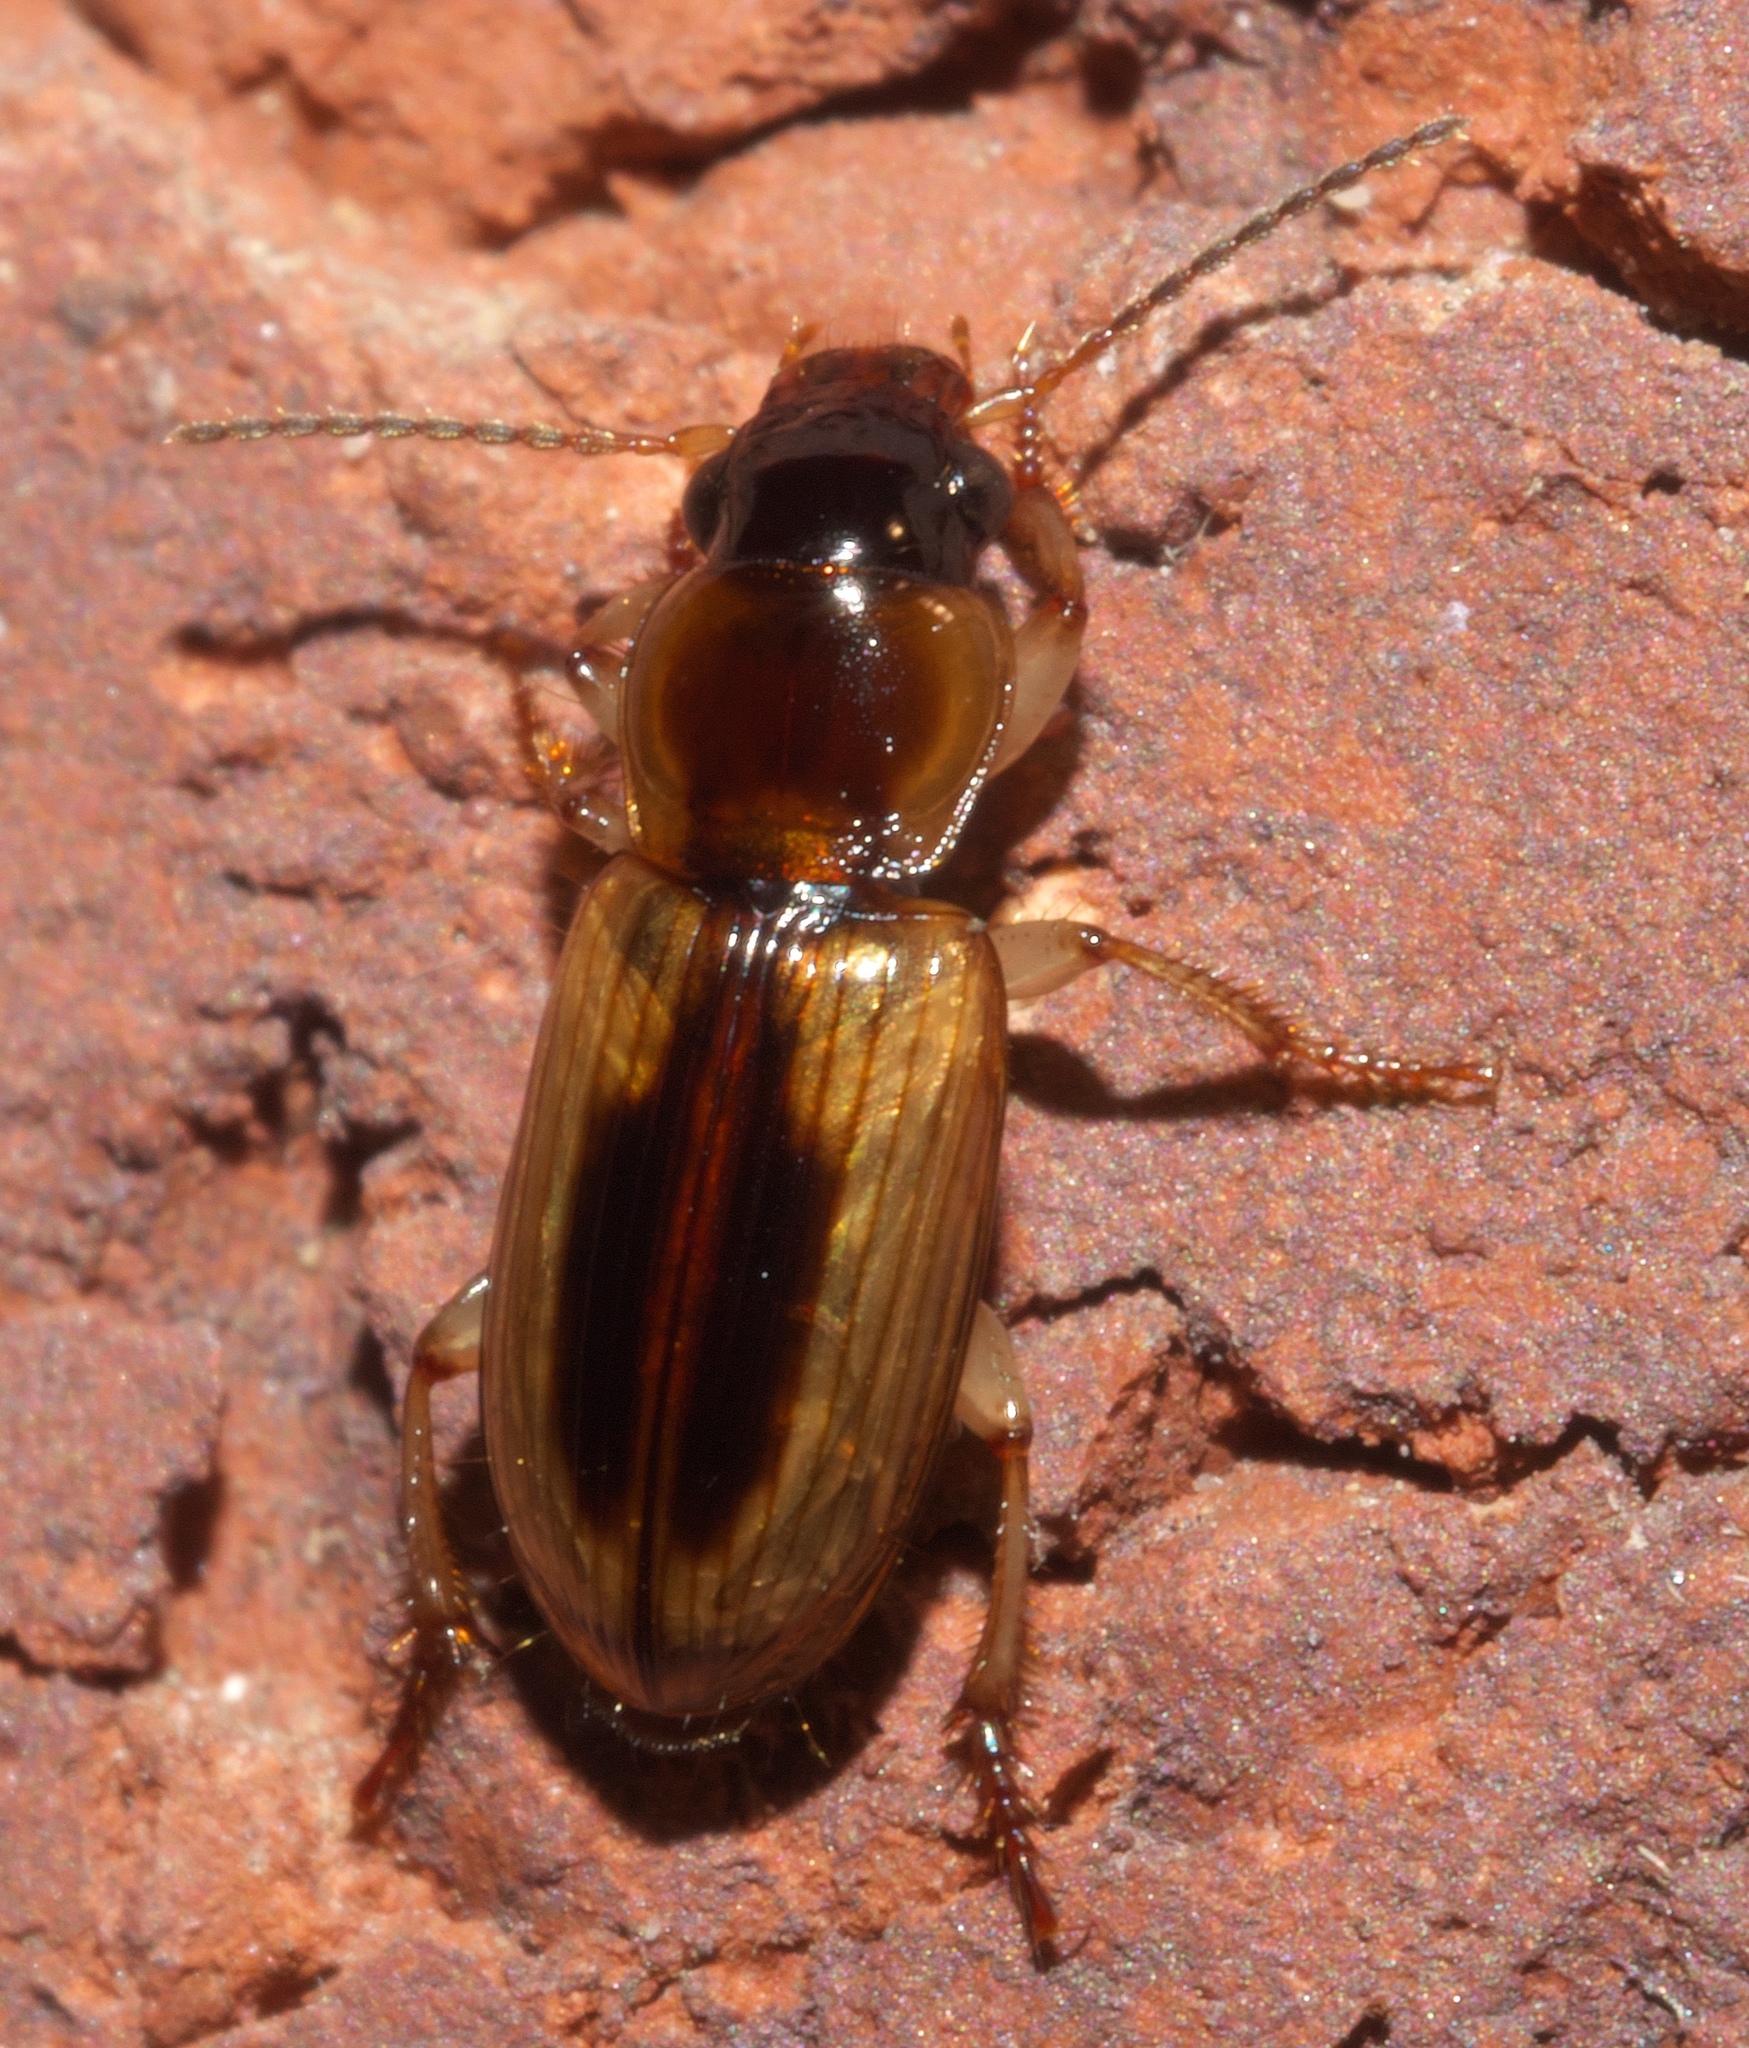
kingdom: Animalia
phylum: Arthropoda
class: Insecta
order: Coleoptera
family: Carabidae
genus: Stenolophus
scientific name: Stenolophus lecontei
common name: Leconte's seedcorn beetle
